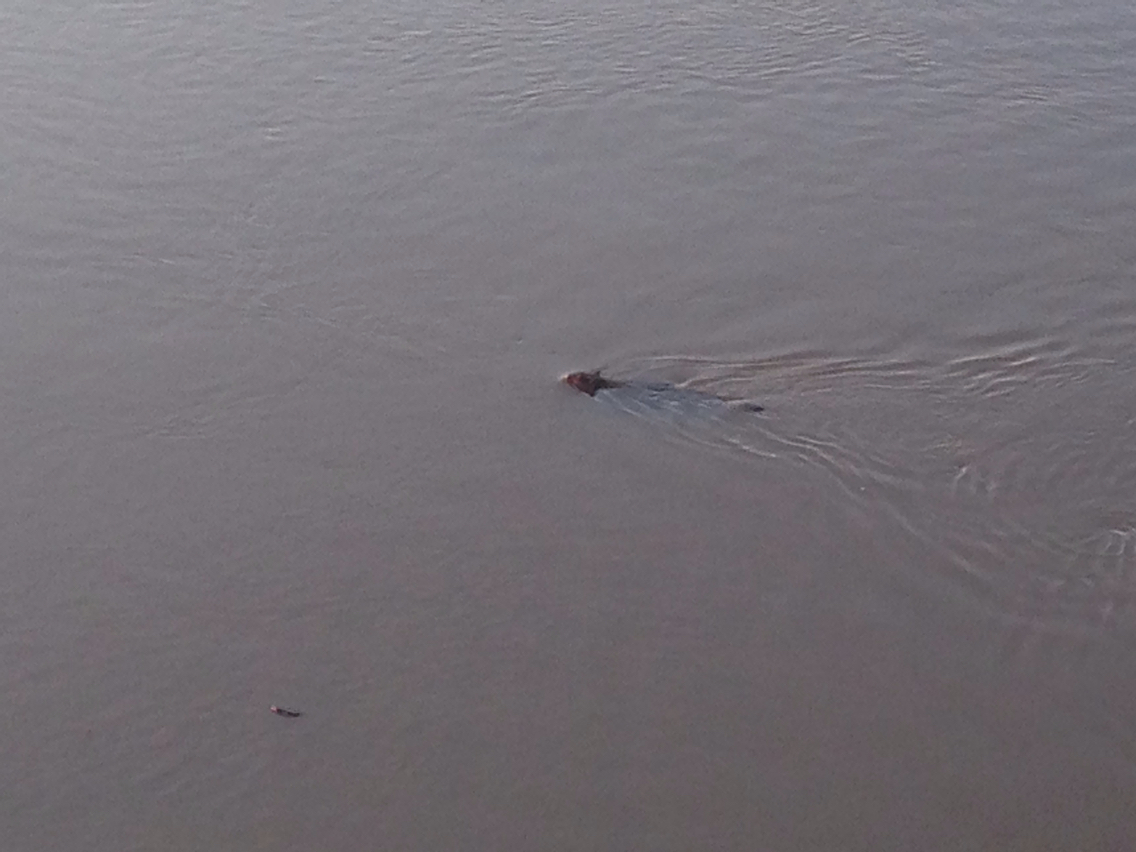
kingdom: Animalia
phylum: Chordata
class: Mammalia
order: Carnivora
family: Mustelidae
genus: Lontra
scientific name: Lontra canadensis
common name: North american river otter
